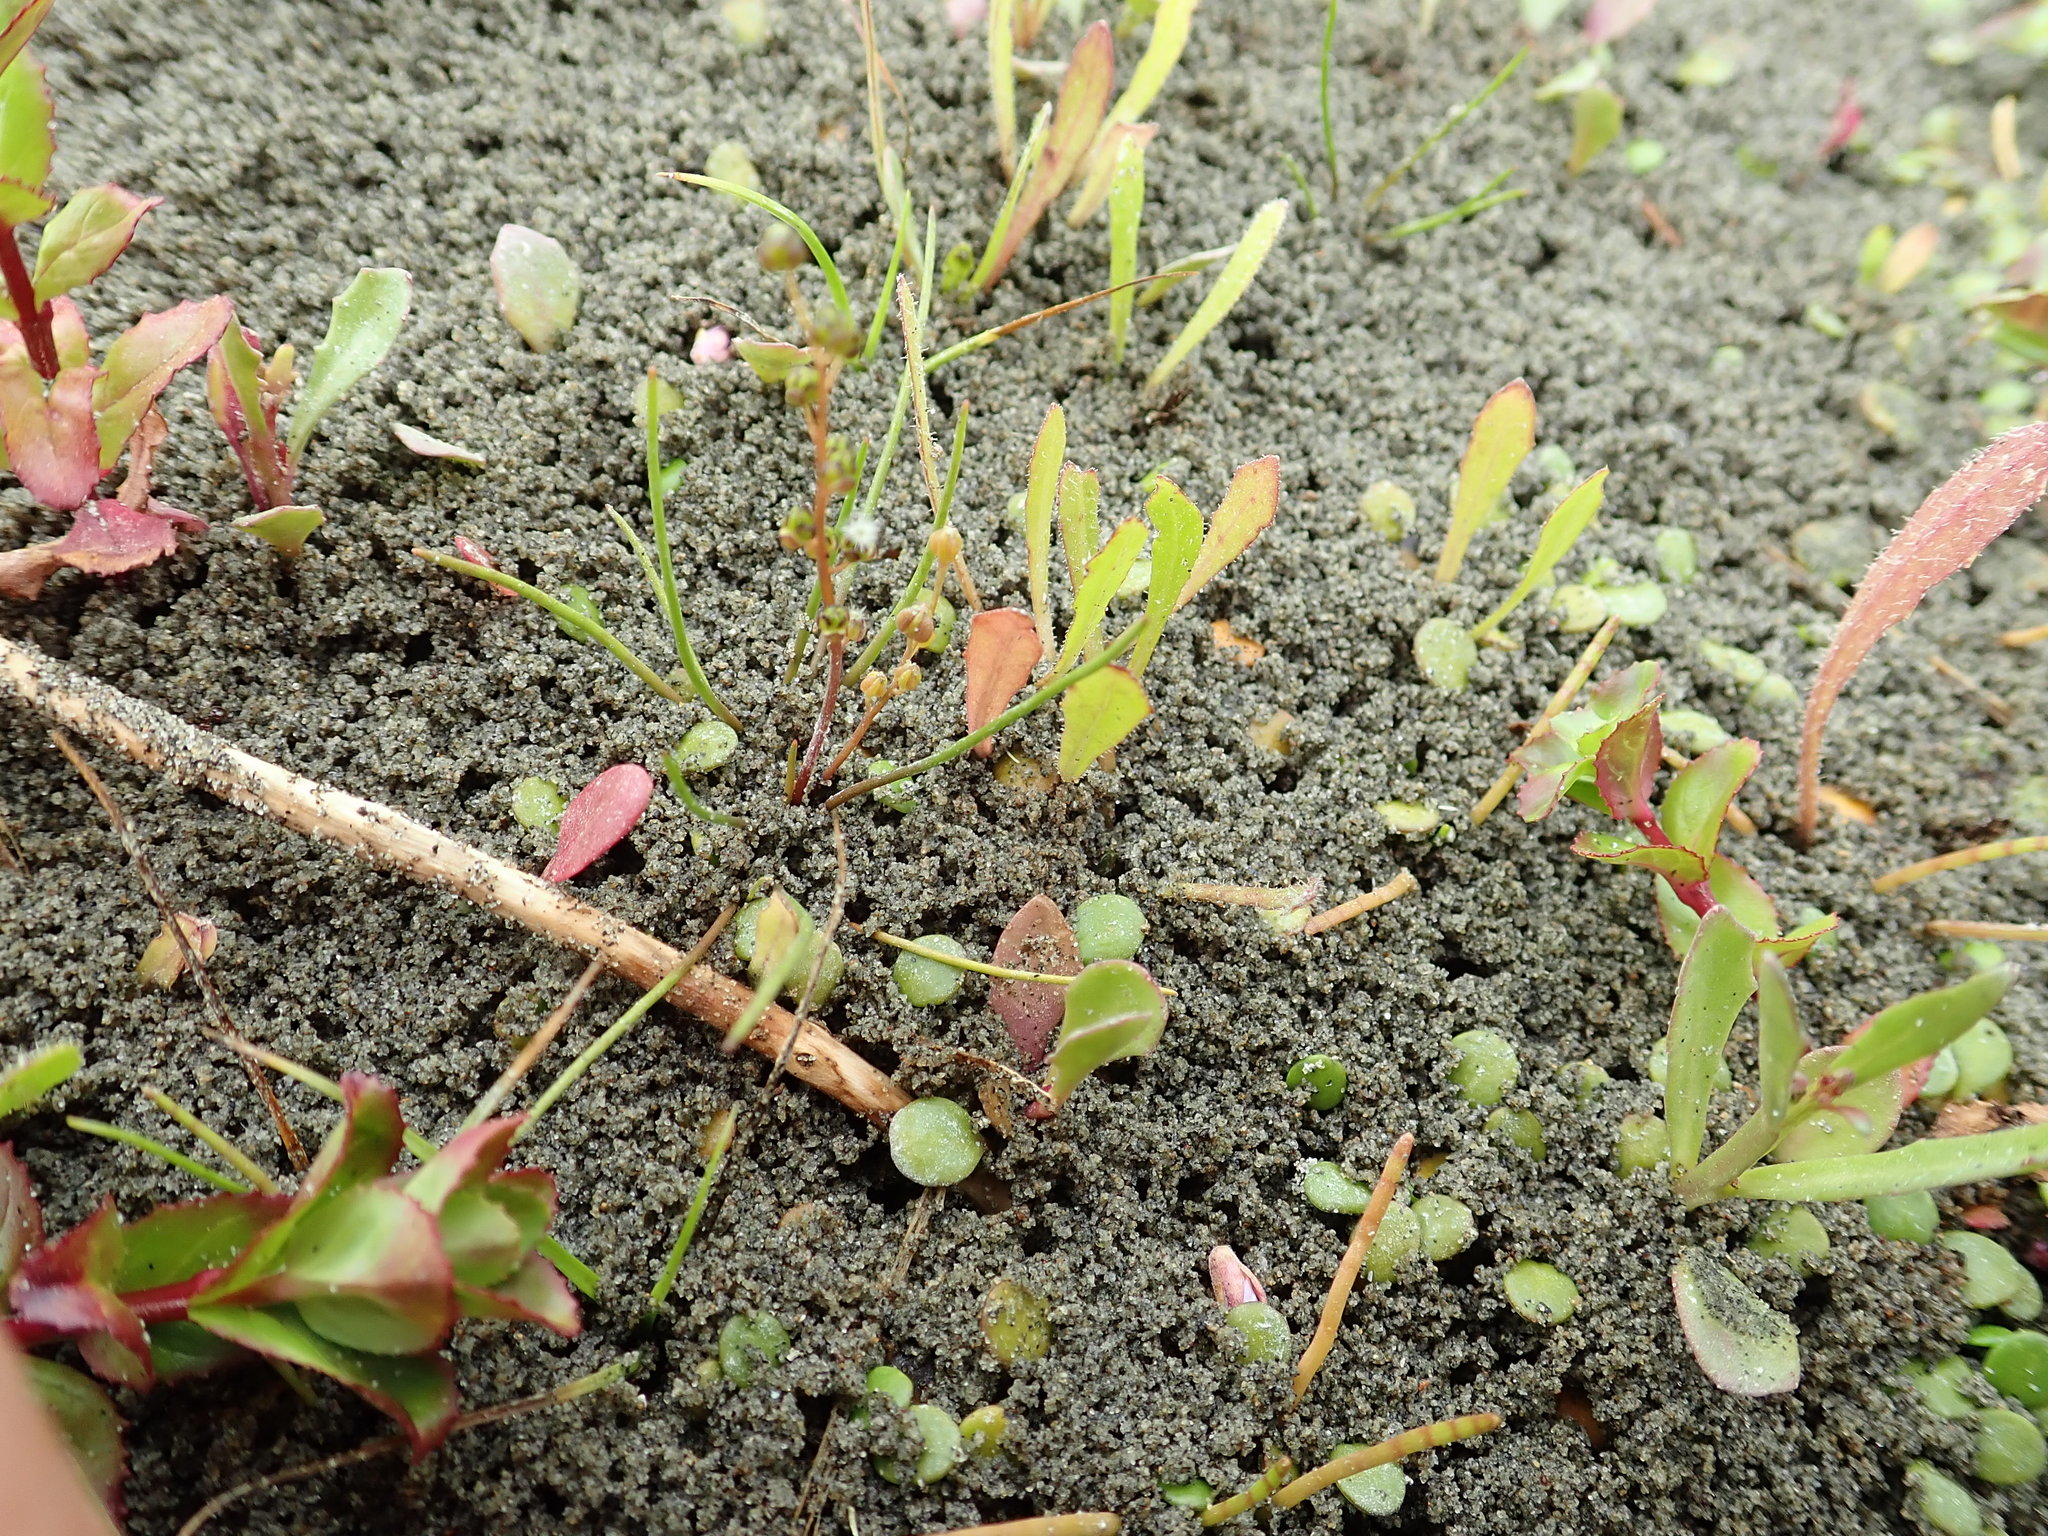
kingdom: Plantae
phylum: Tracheophyta
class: Liliopsida
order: Alismatales
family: Juncaginaceae
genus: Triglochin
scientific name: Triglochin striata
